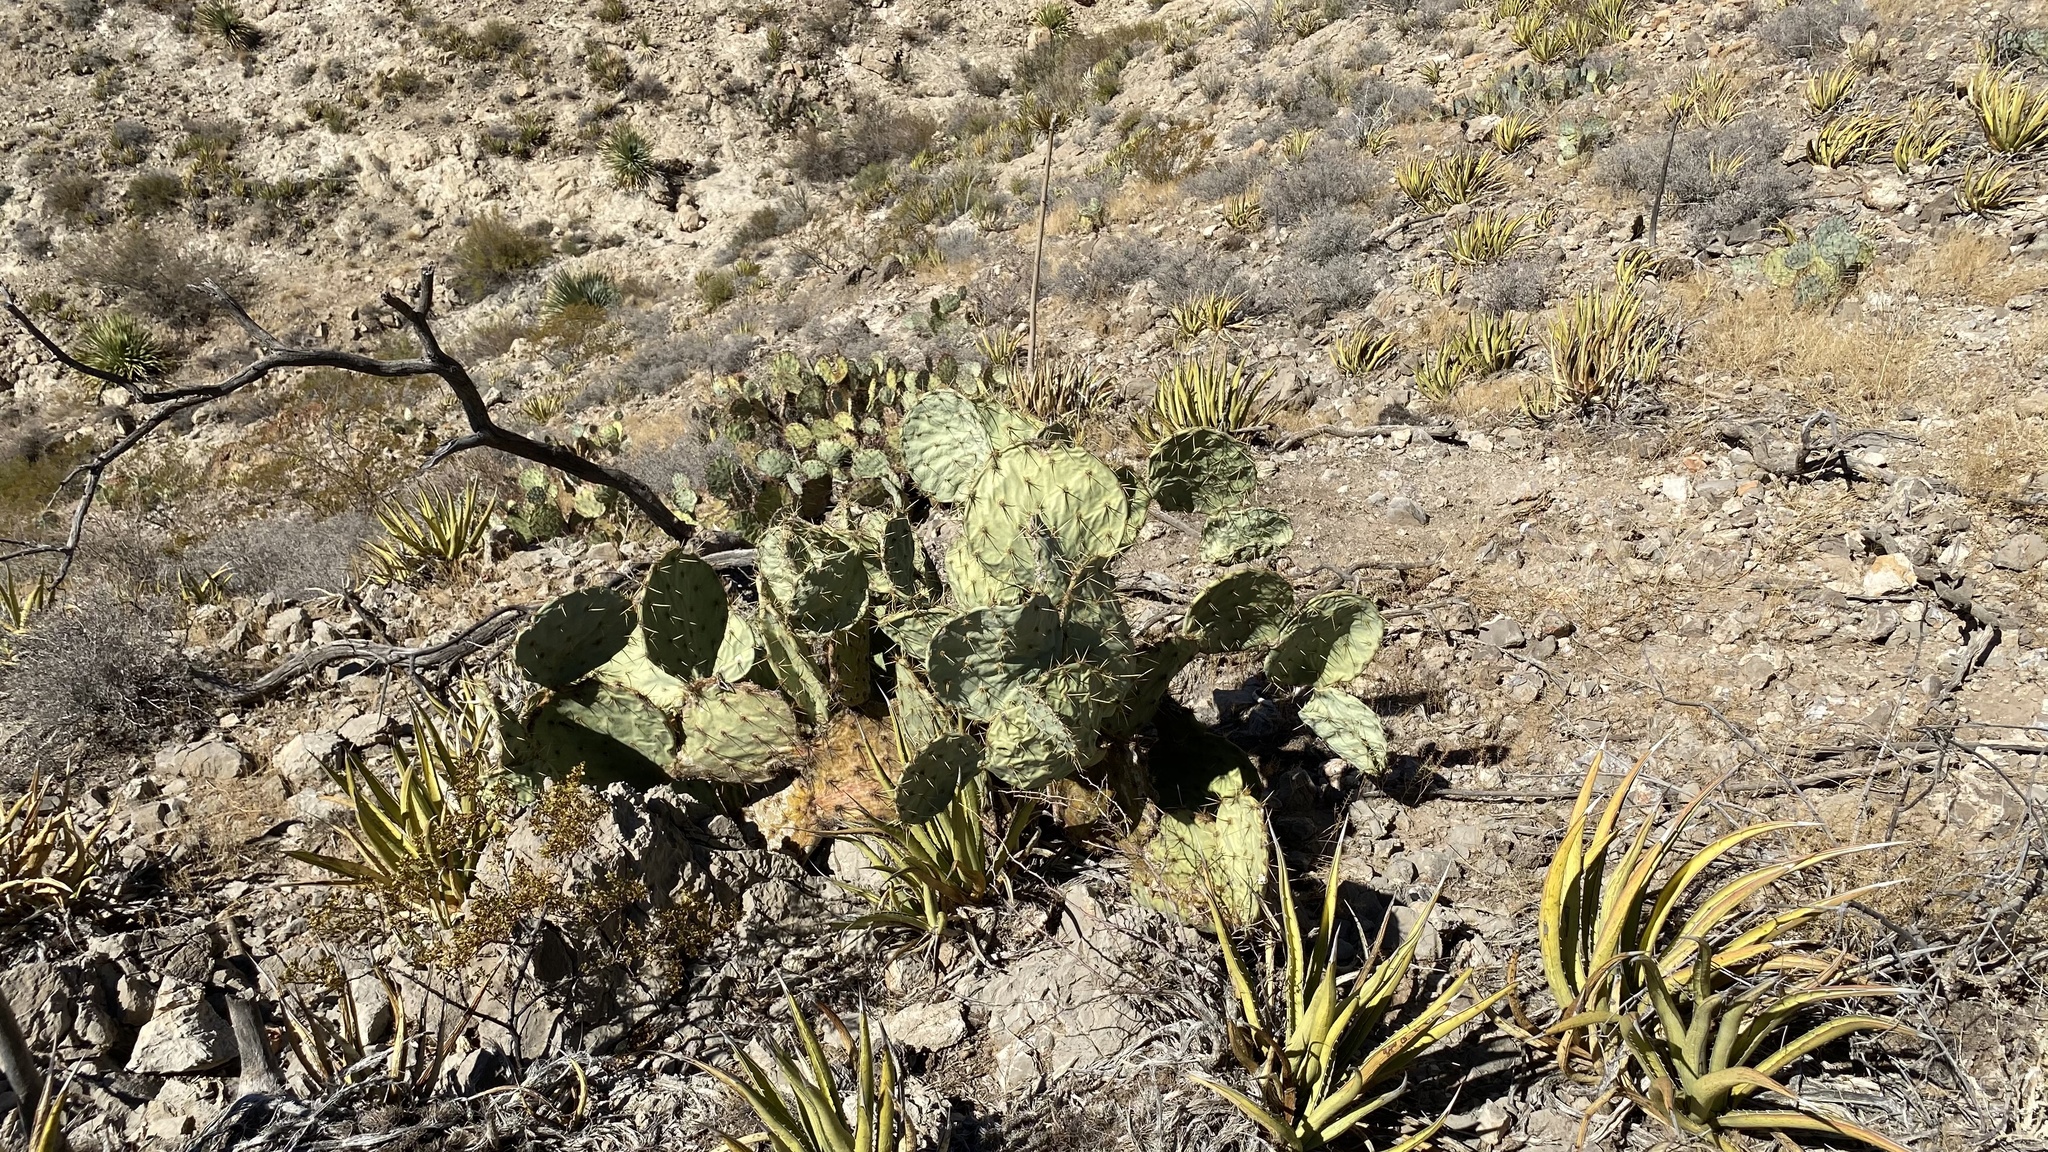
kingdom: Plantae
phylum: Tracheophyta
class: Magnoliopsida
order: Caryophyllales
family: Cactaceae
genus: Opuntia
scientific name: Opuntia phaeacantha
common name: New mexico prickly-pear
